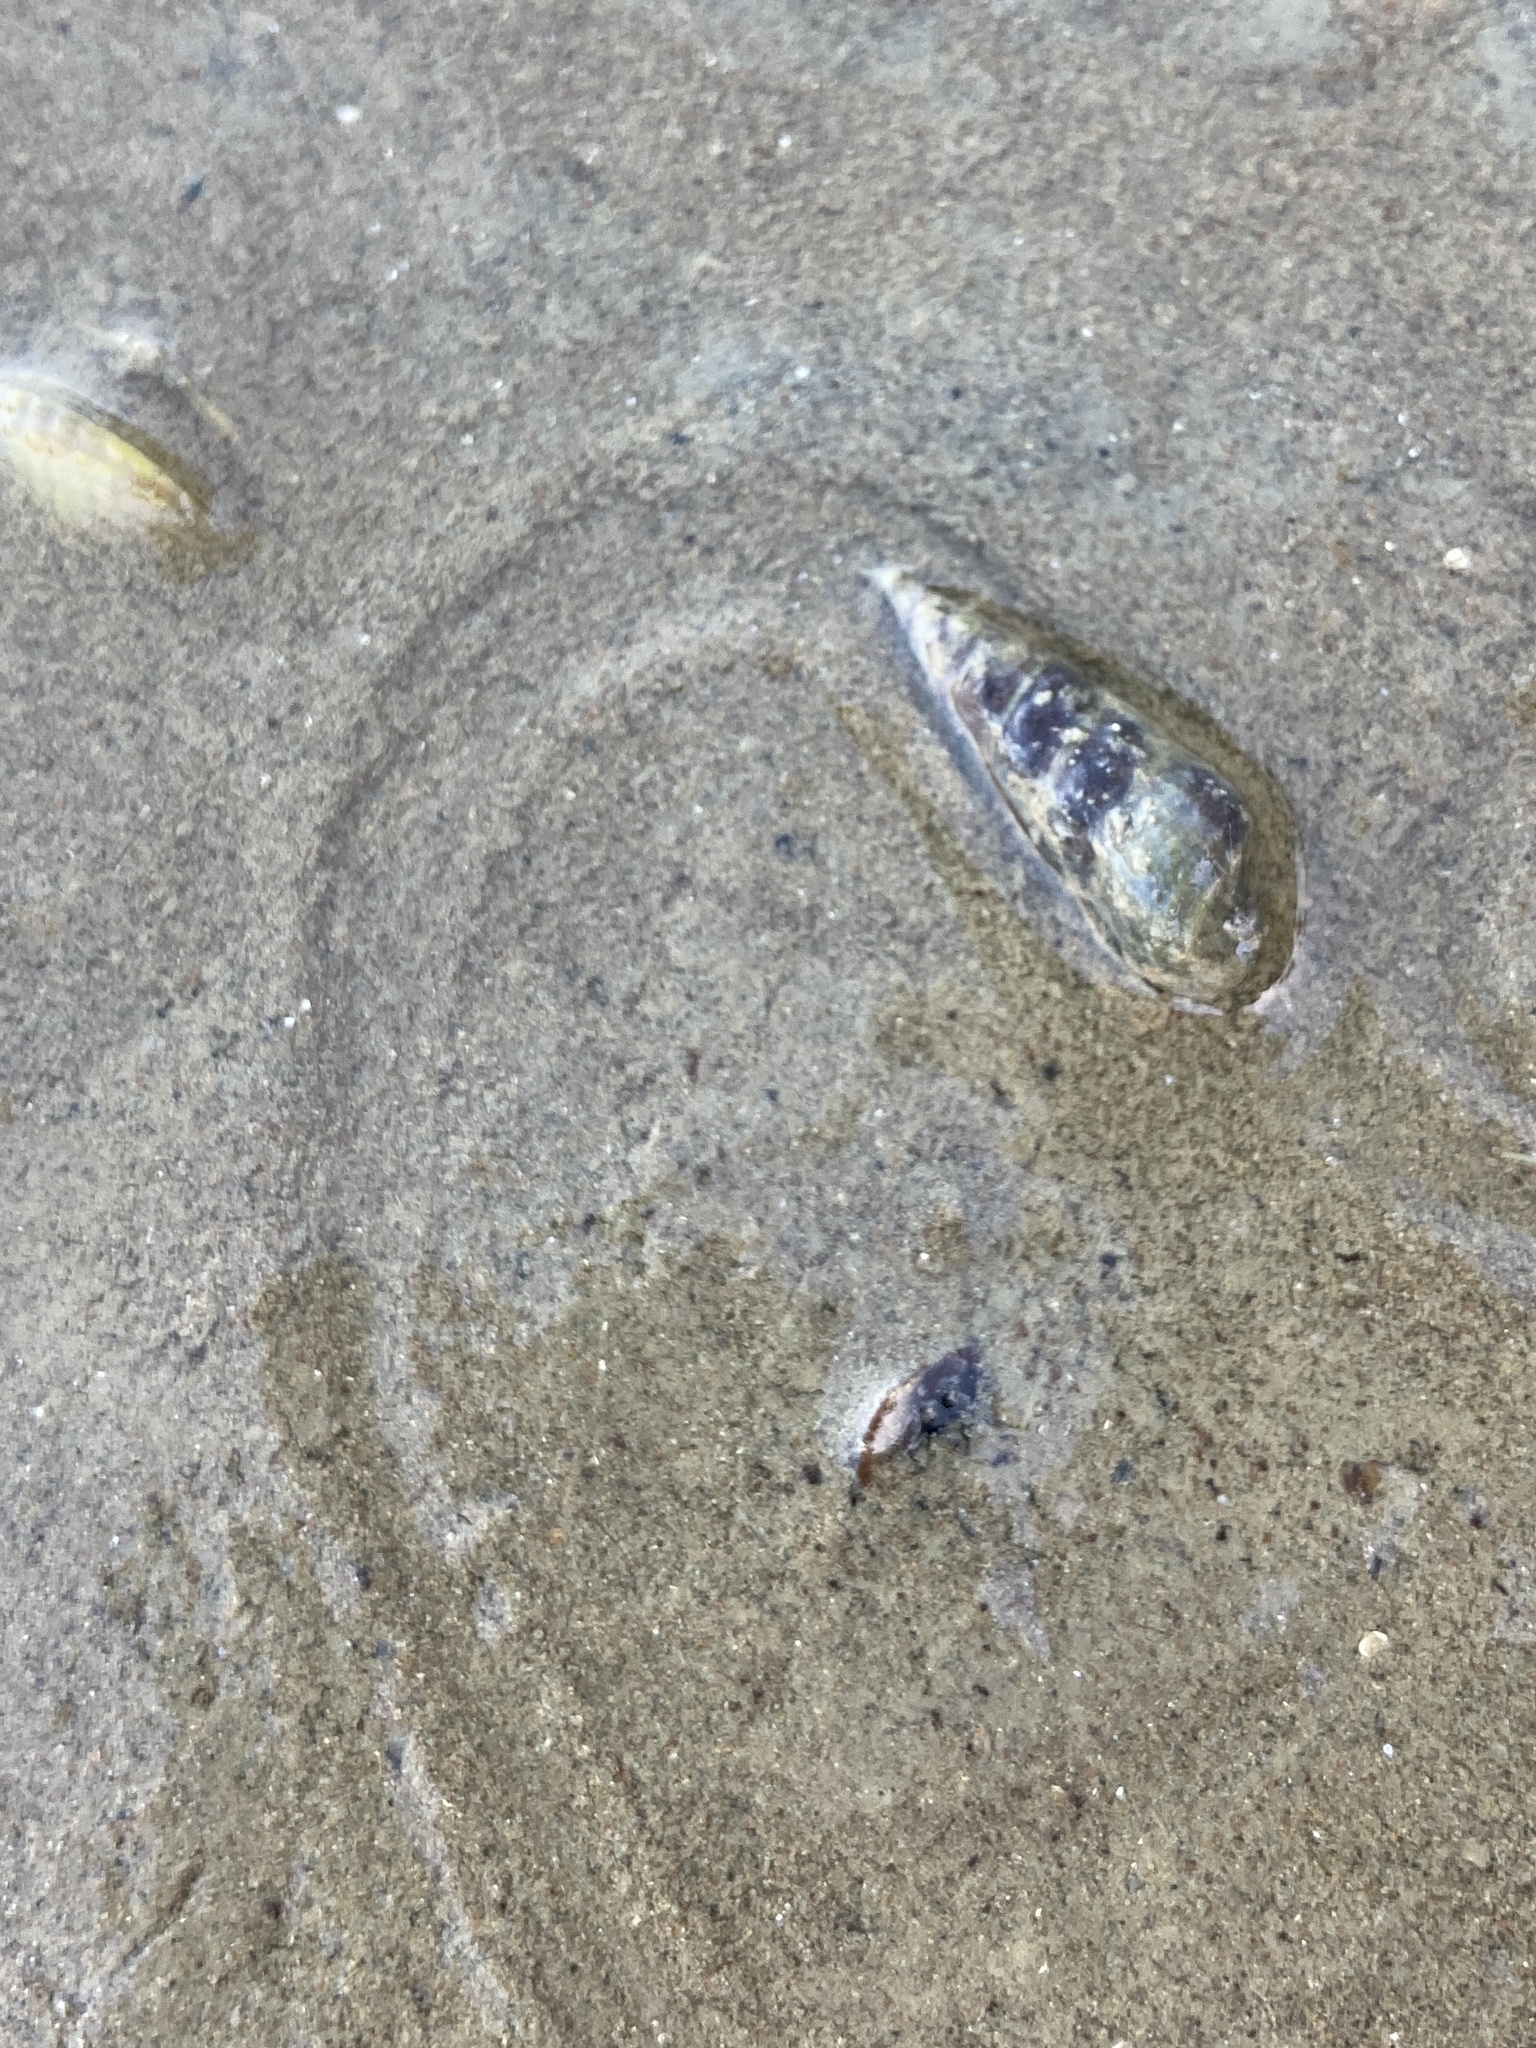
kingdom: Animalia
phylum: Mollusca
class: Gastropoda
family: Batillariidae
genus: Zeacumantus
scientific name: Zeacumantus lutulentus
